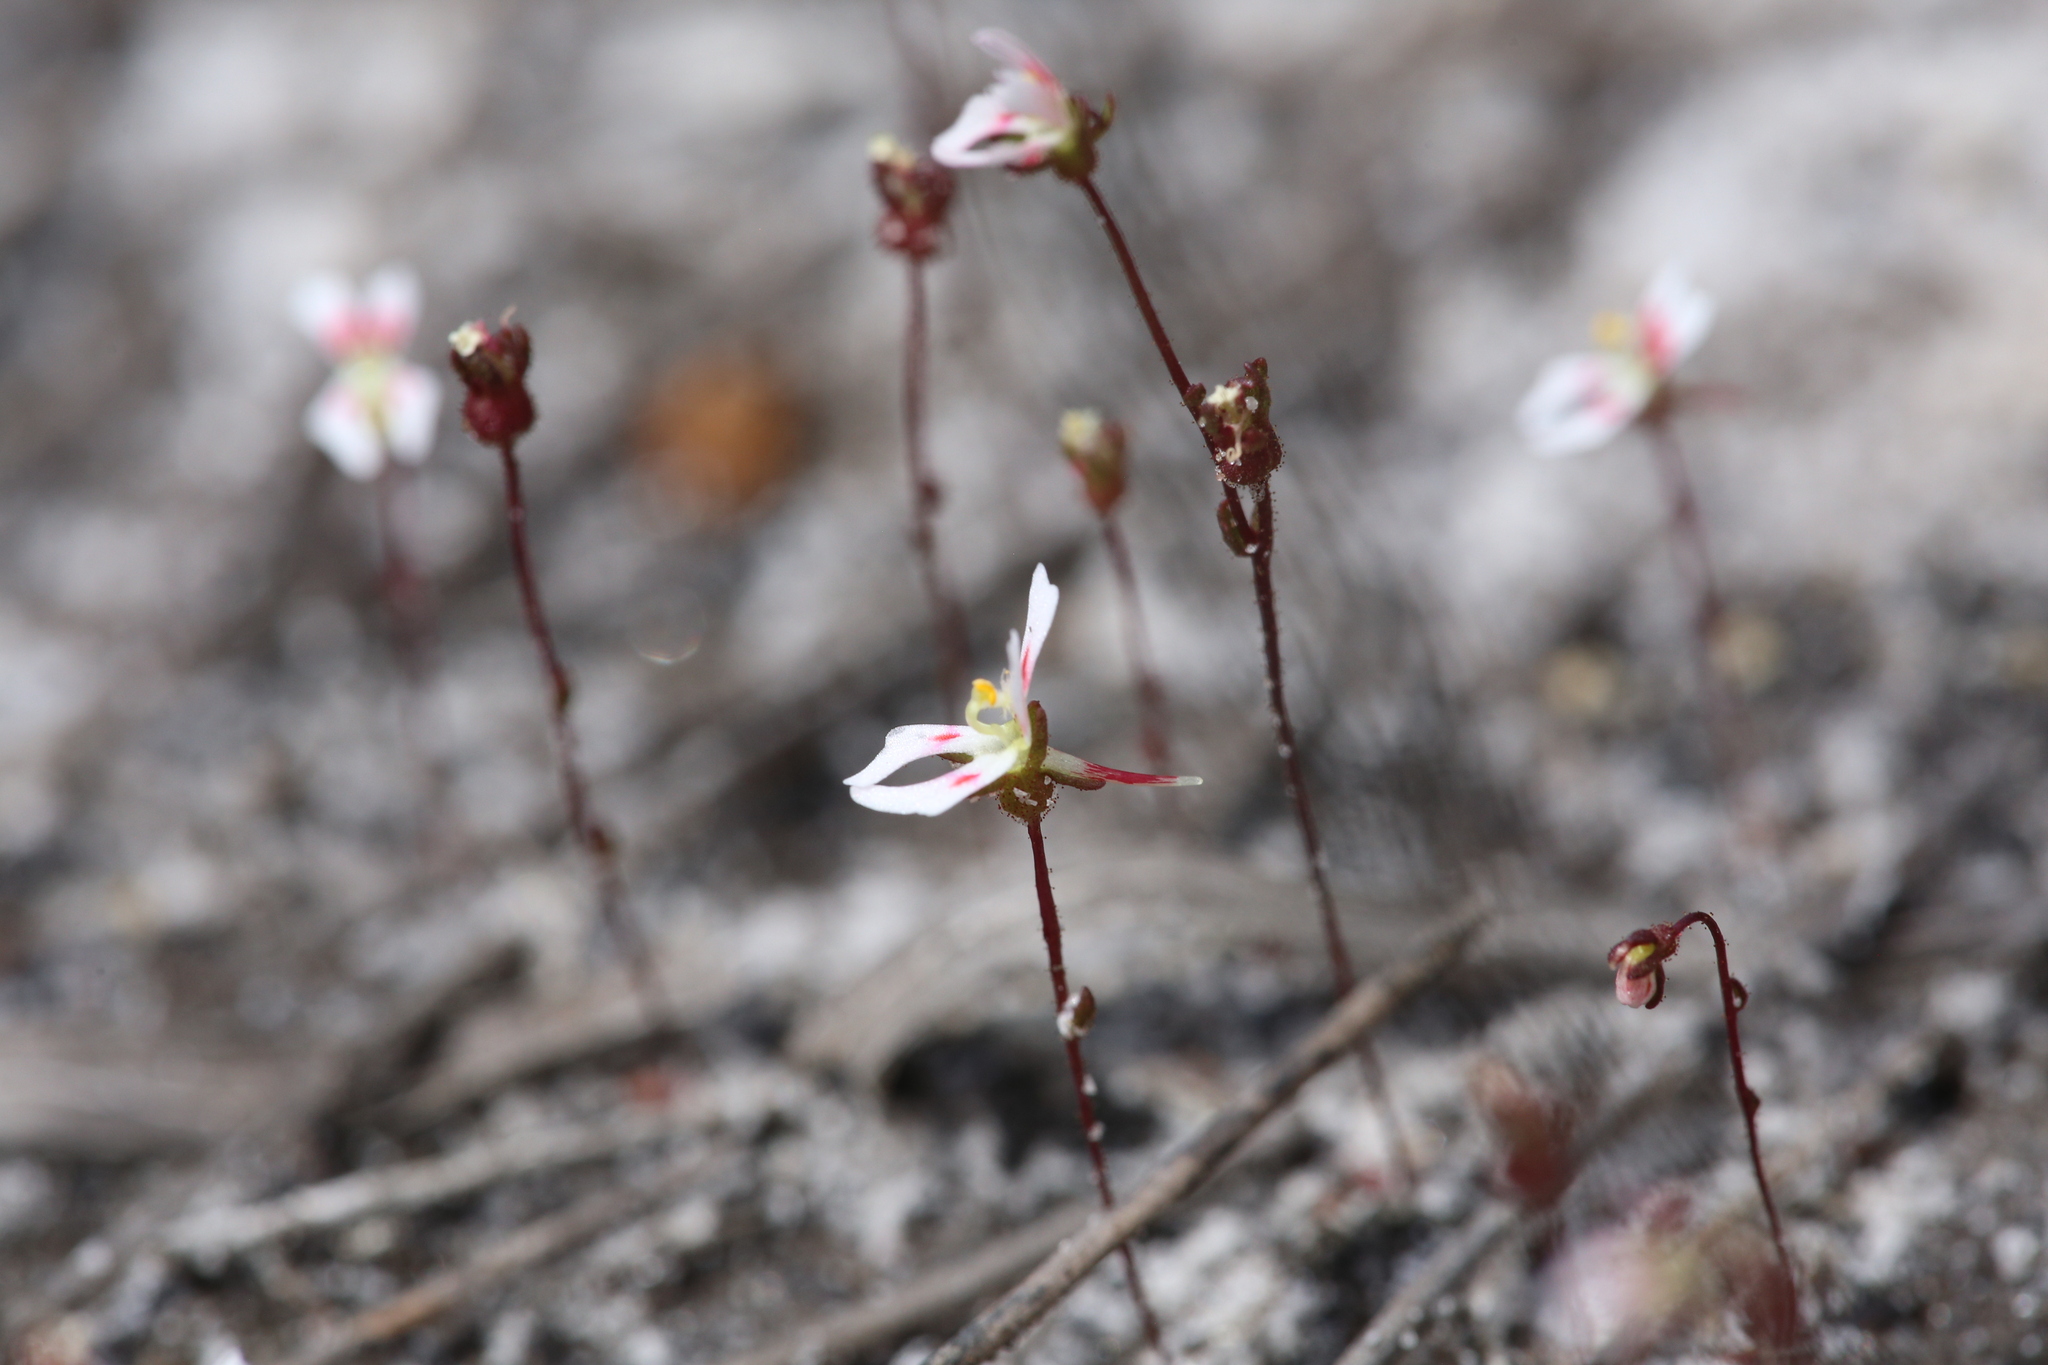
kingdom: Plantae
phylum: Tracheophyta
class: Magnoliopsida
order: Asterales
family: Stylidiaceae
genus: Stylidium
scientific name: Stylidium calcaratum
